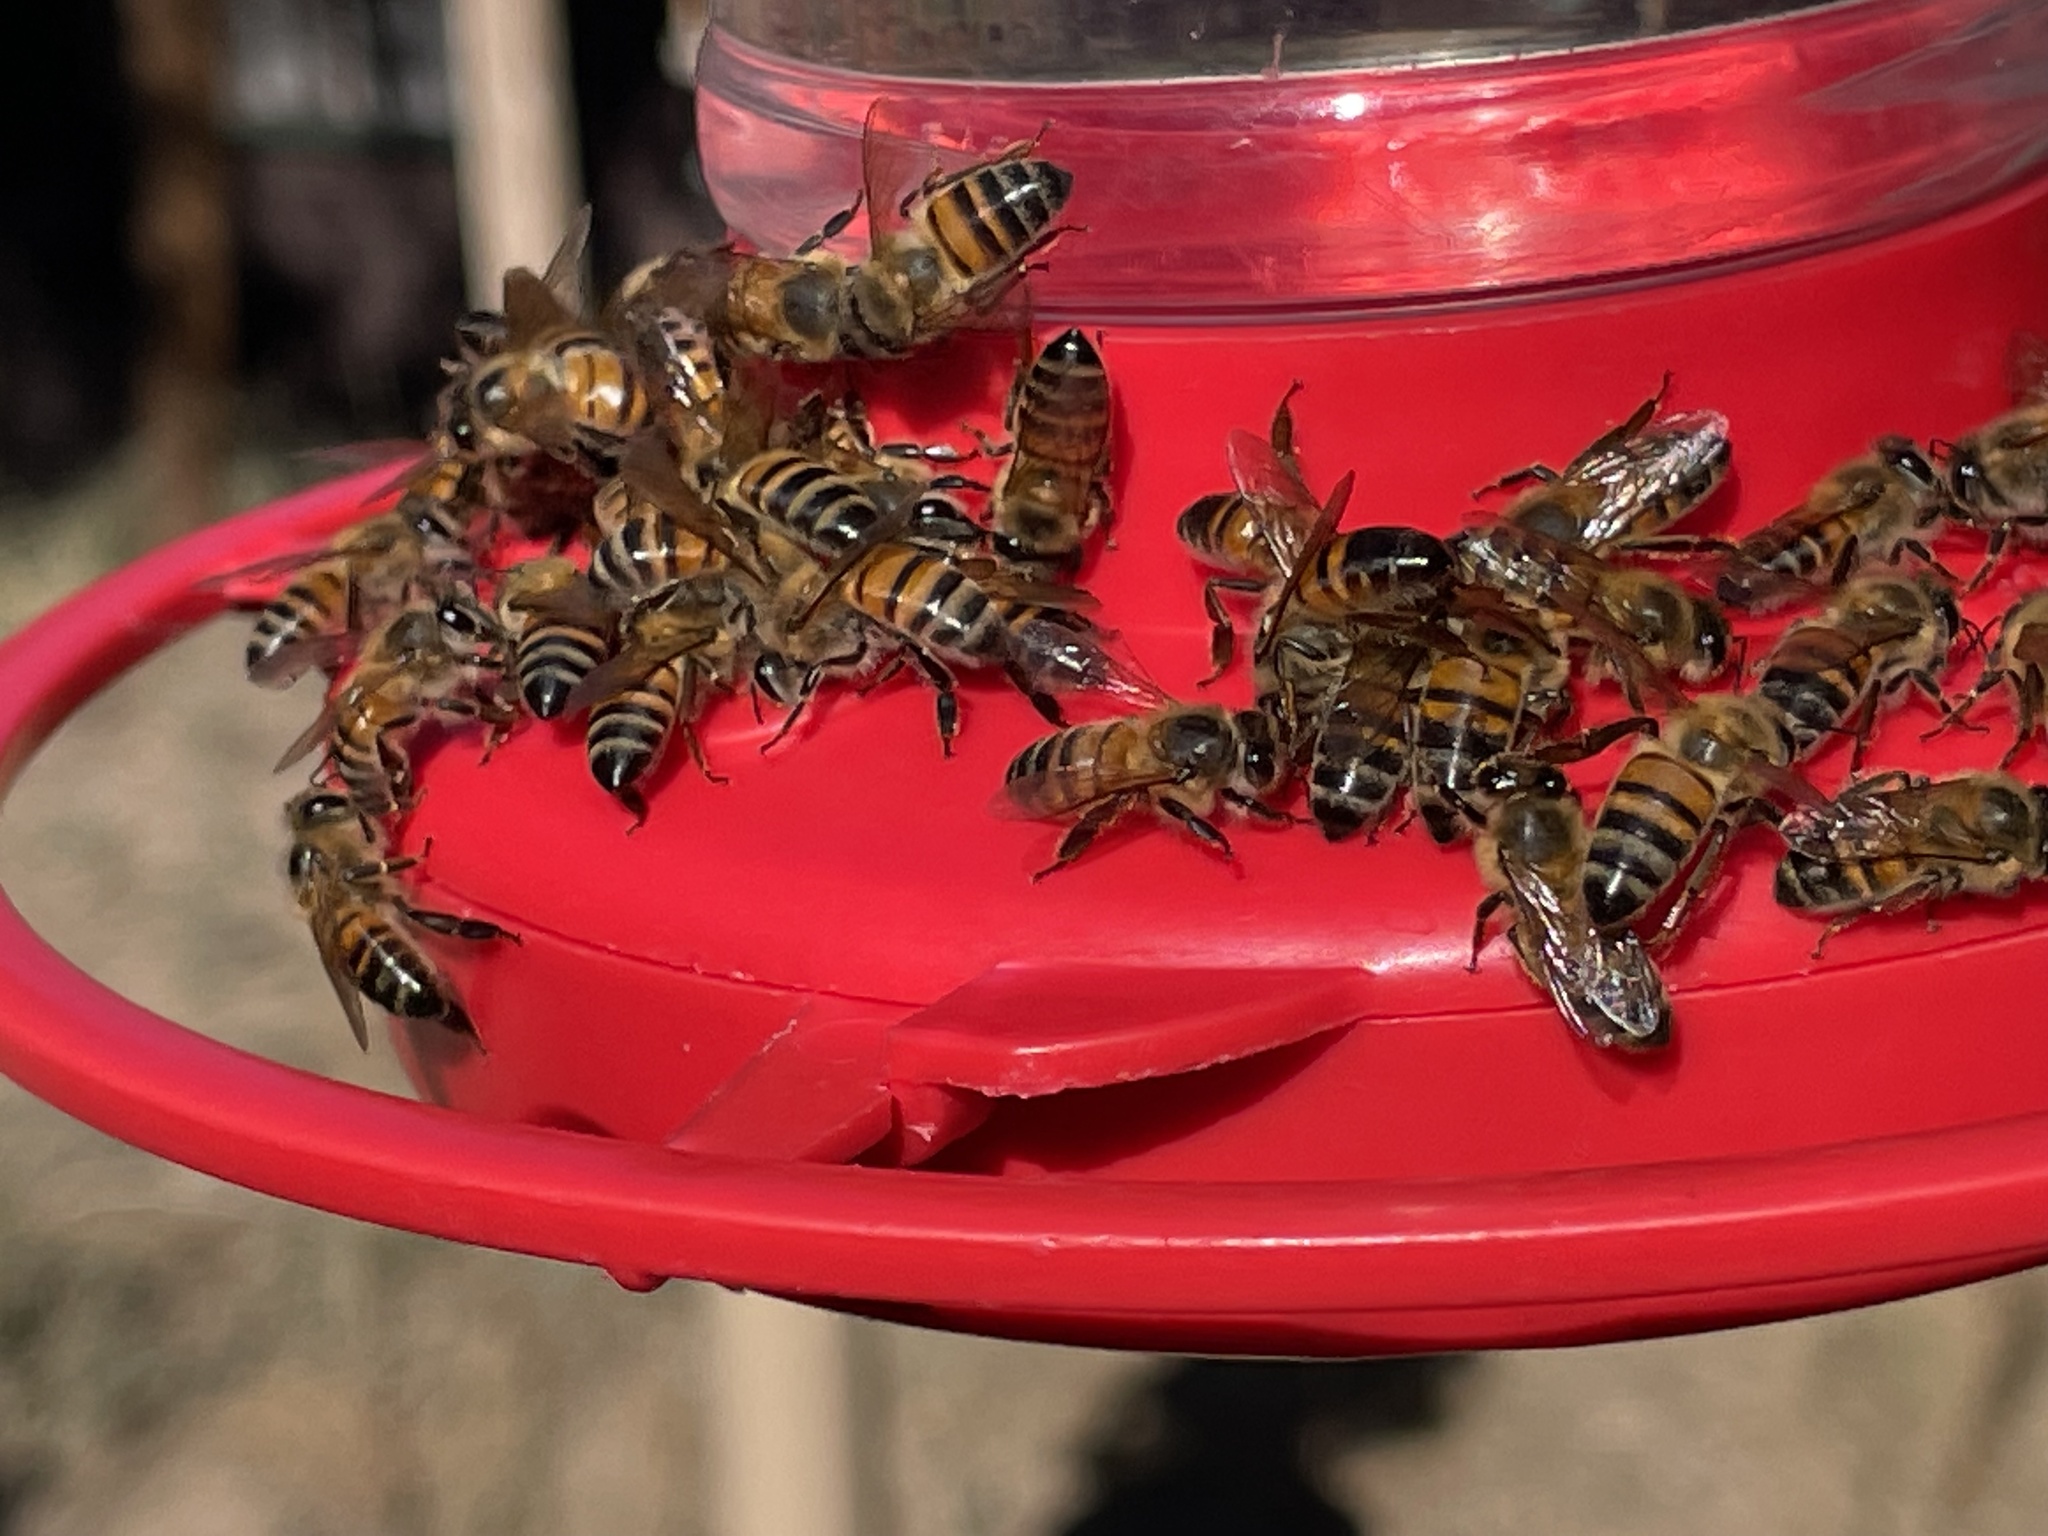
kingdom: Animalia
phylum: Arthropoda
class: Insecta
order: Hymenoptera
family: Apidae
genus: Apis
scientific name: Apis mellifera
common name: Honey bee
